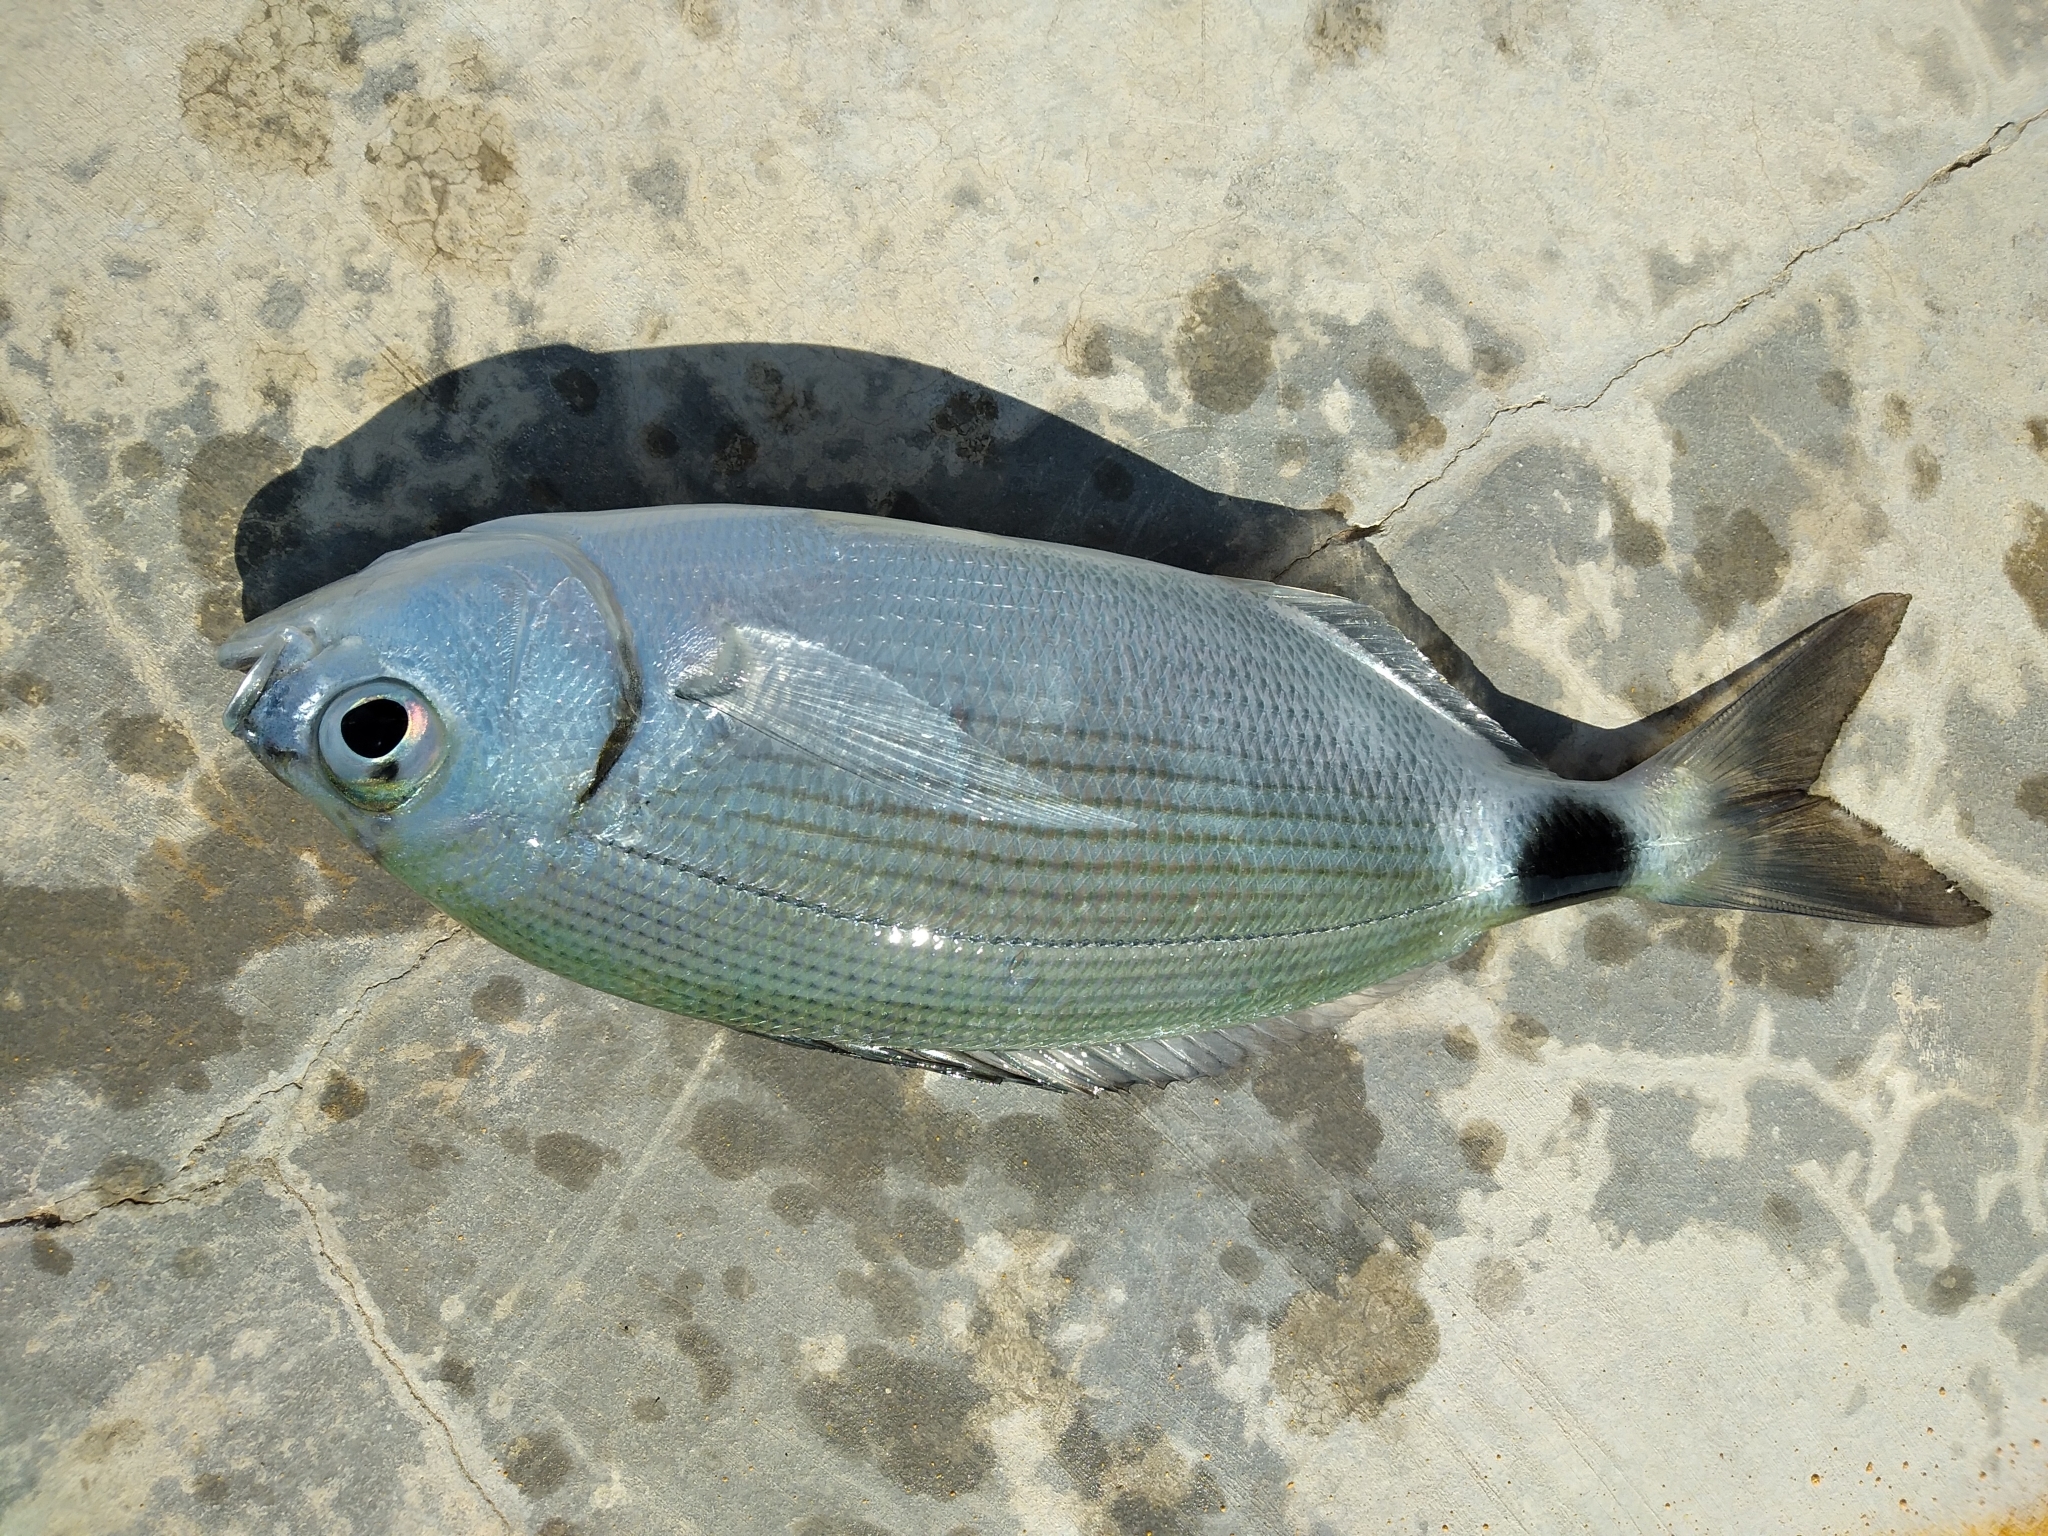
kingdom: Animalia
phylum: Chordata
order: Perciformes
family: Sparidae
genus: Oblada
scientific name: Oblada melanura
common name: Saddled seabream
